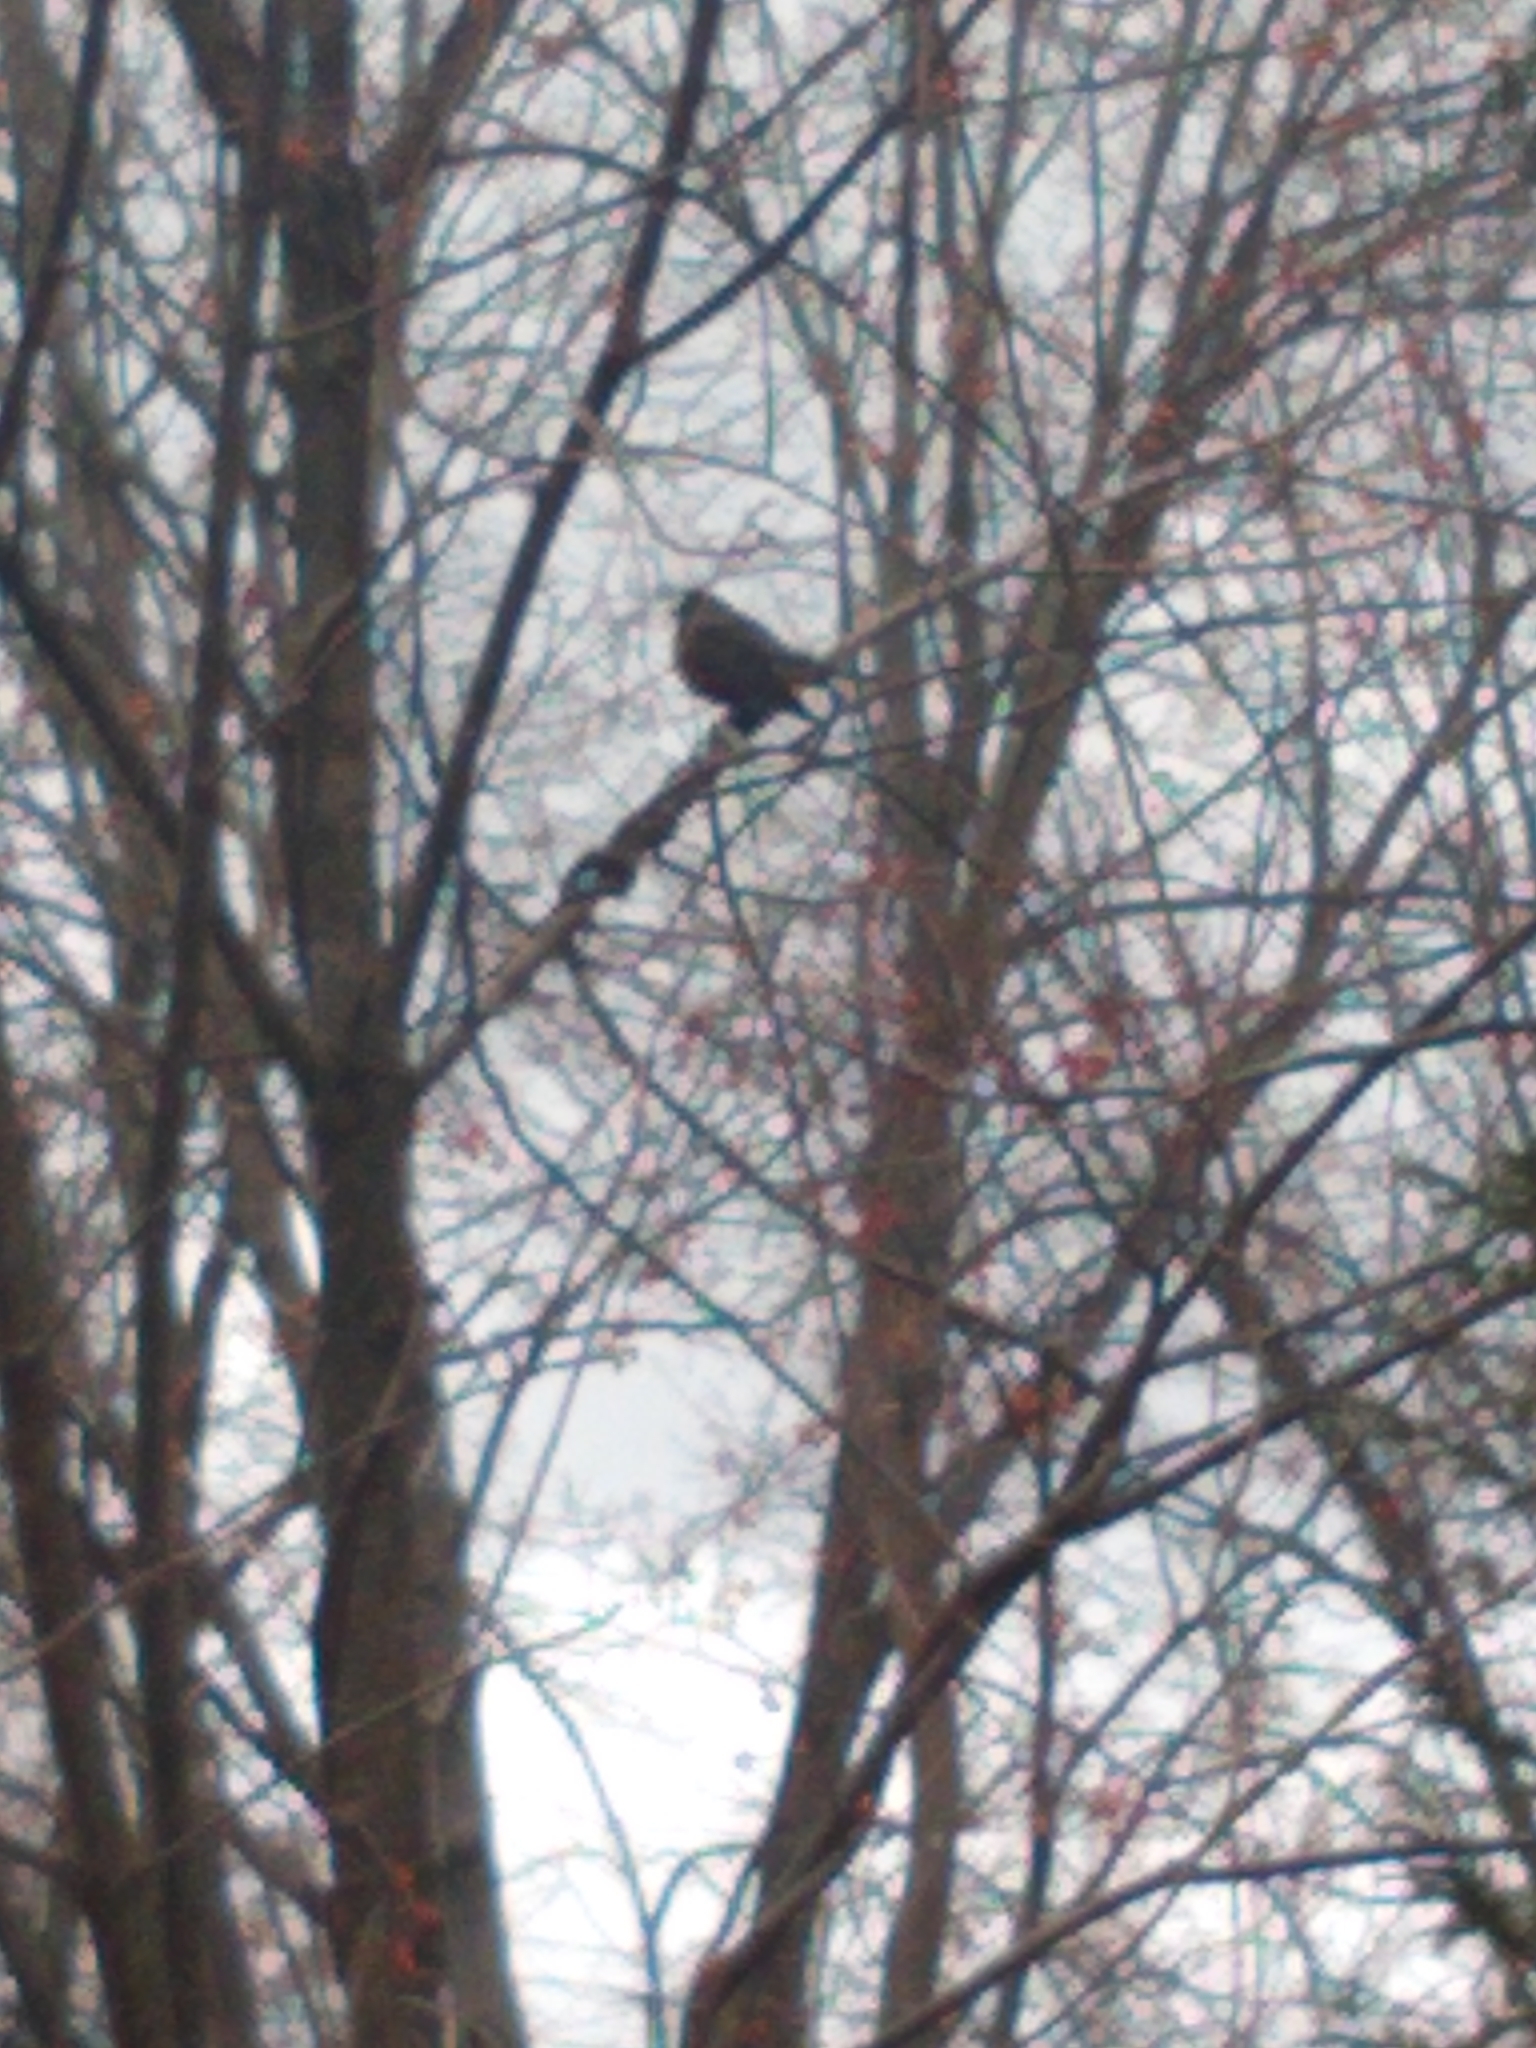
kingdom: Animalia
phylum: Chordata
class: Aves
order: Passeriformes
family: Turdidae
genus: Turdus
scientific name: Turdus migratorius
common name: American robin
